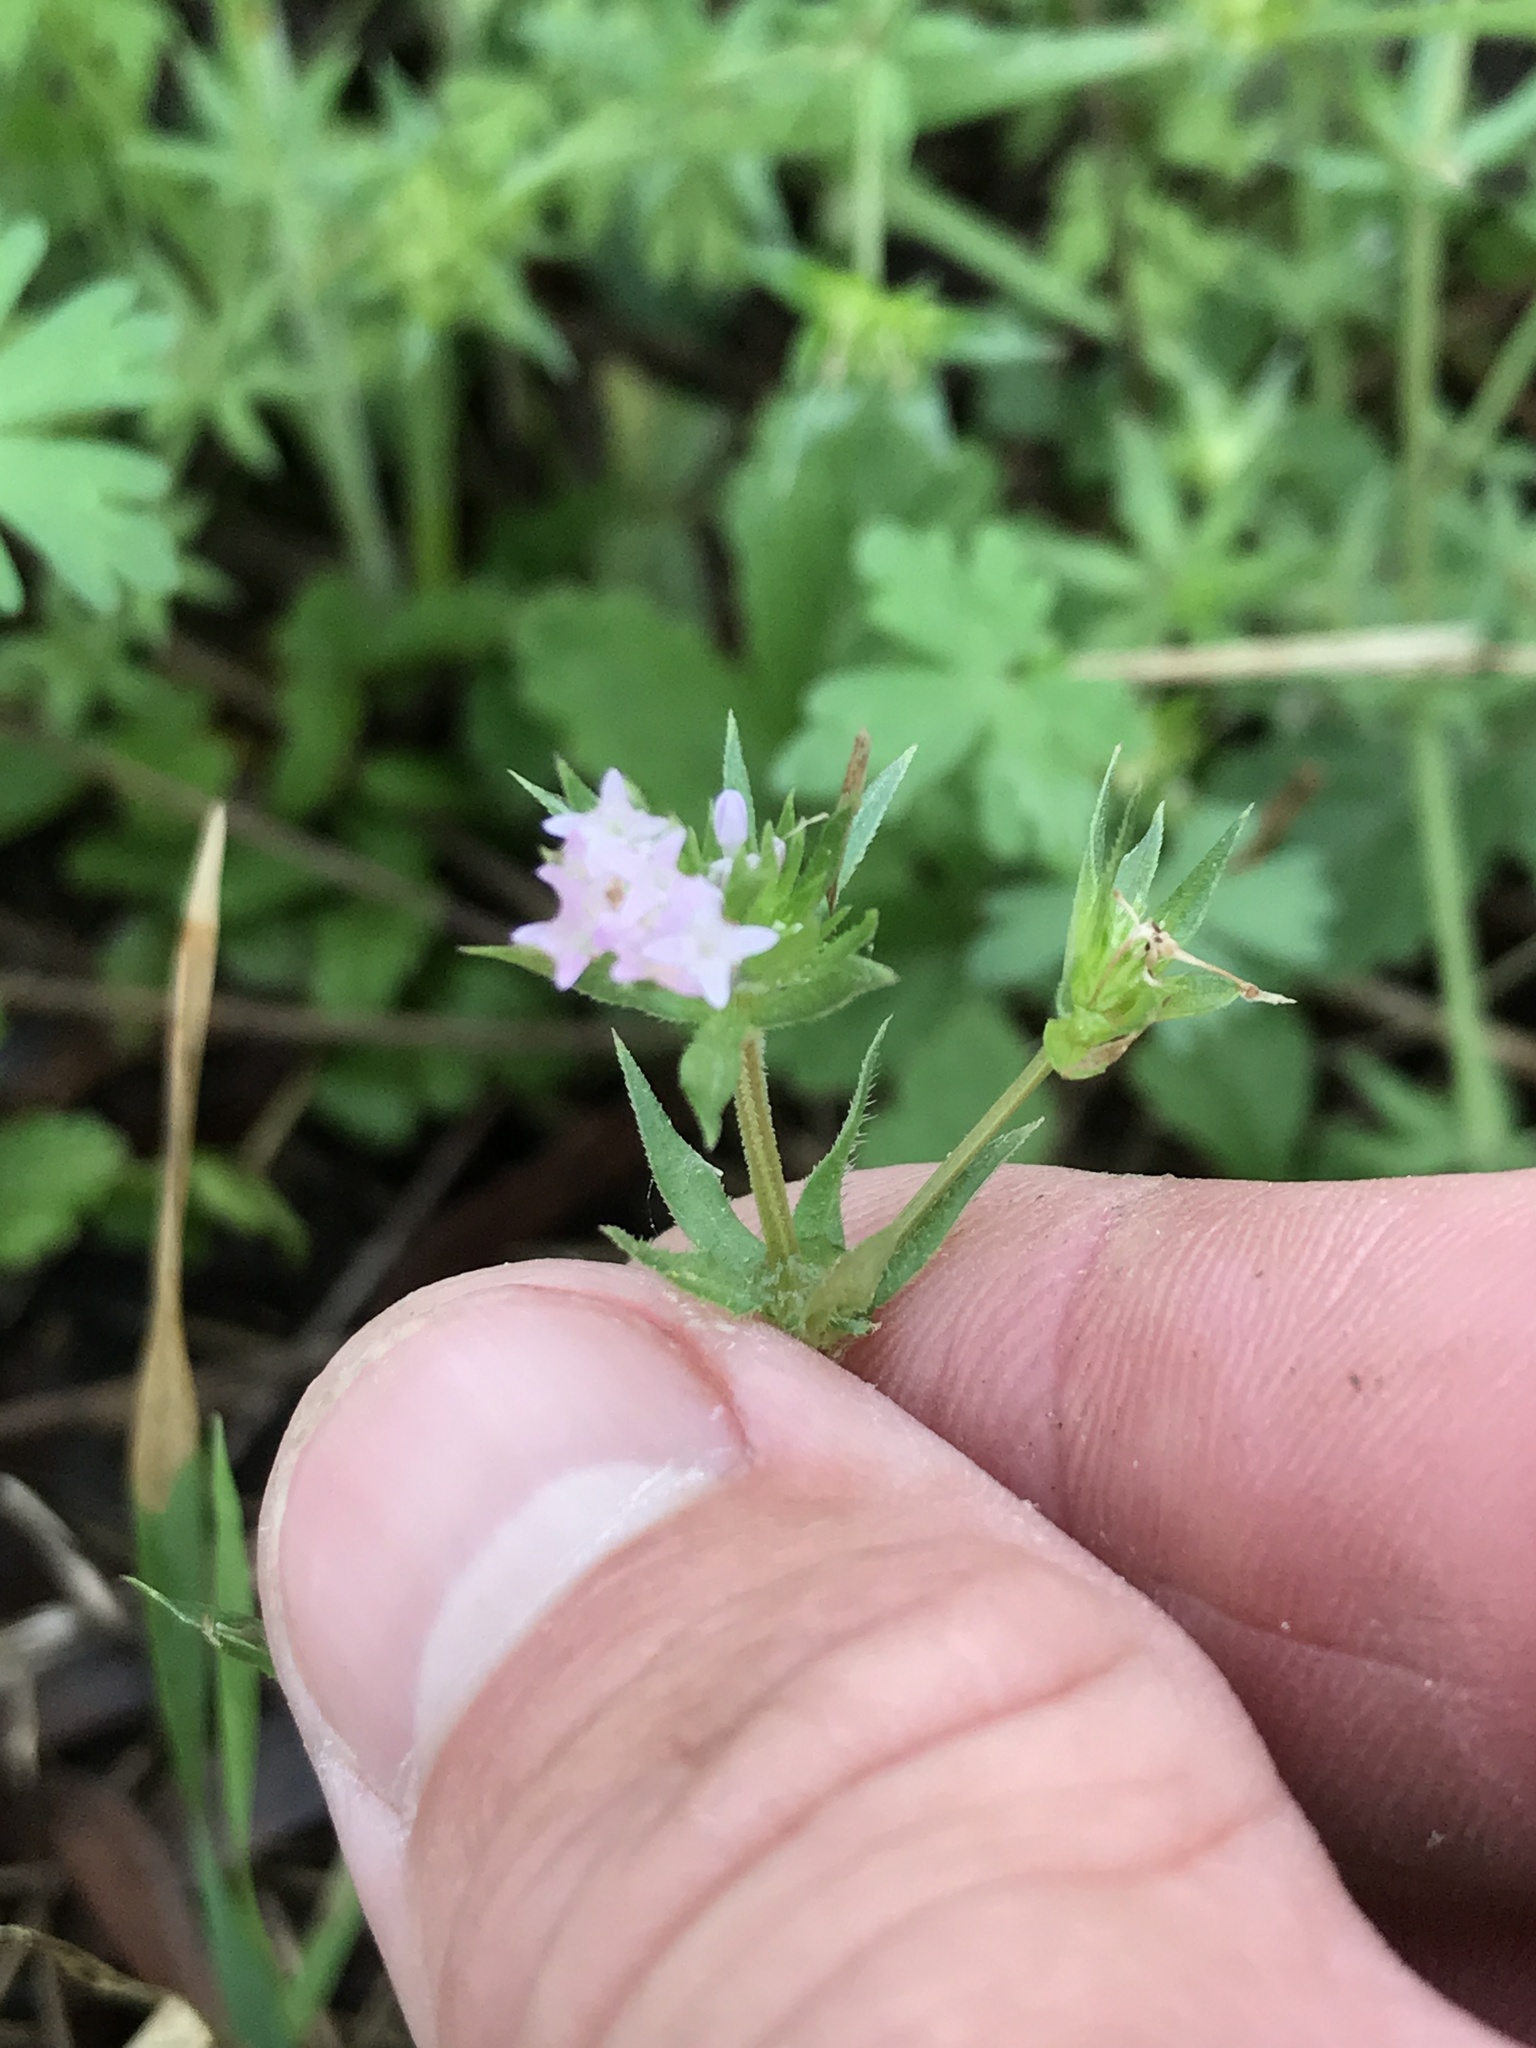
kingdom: Plantae
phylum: Tracheophyta
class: Magnoliopsida
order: Gentianales
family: Rubiaceae
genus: Sherardia
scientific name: Sherardia arvensis
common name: Field madder
